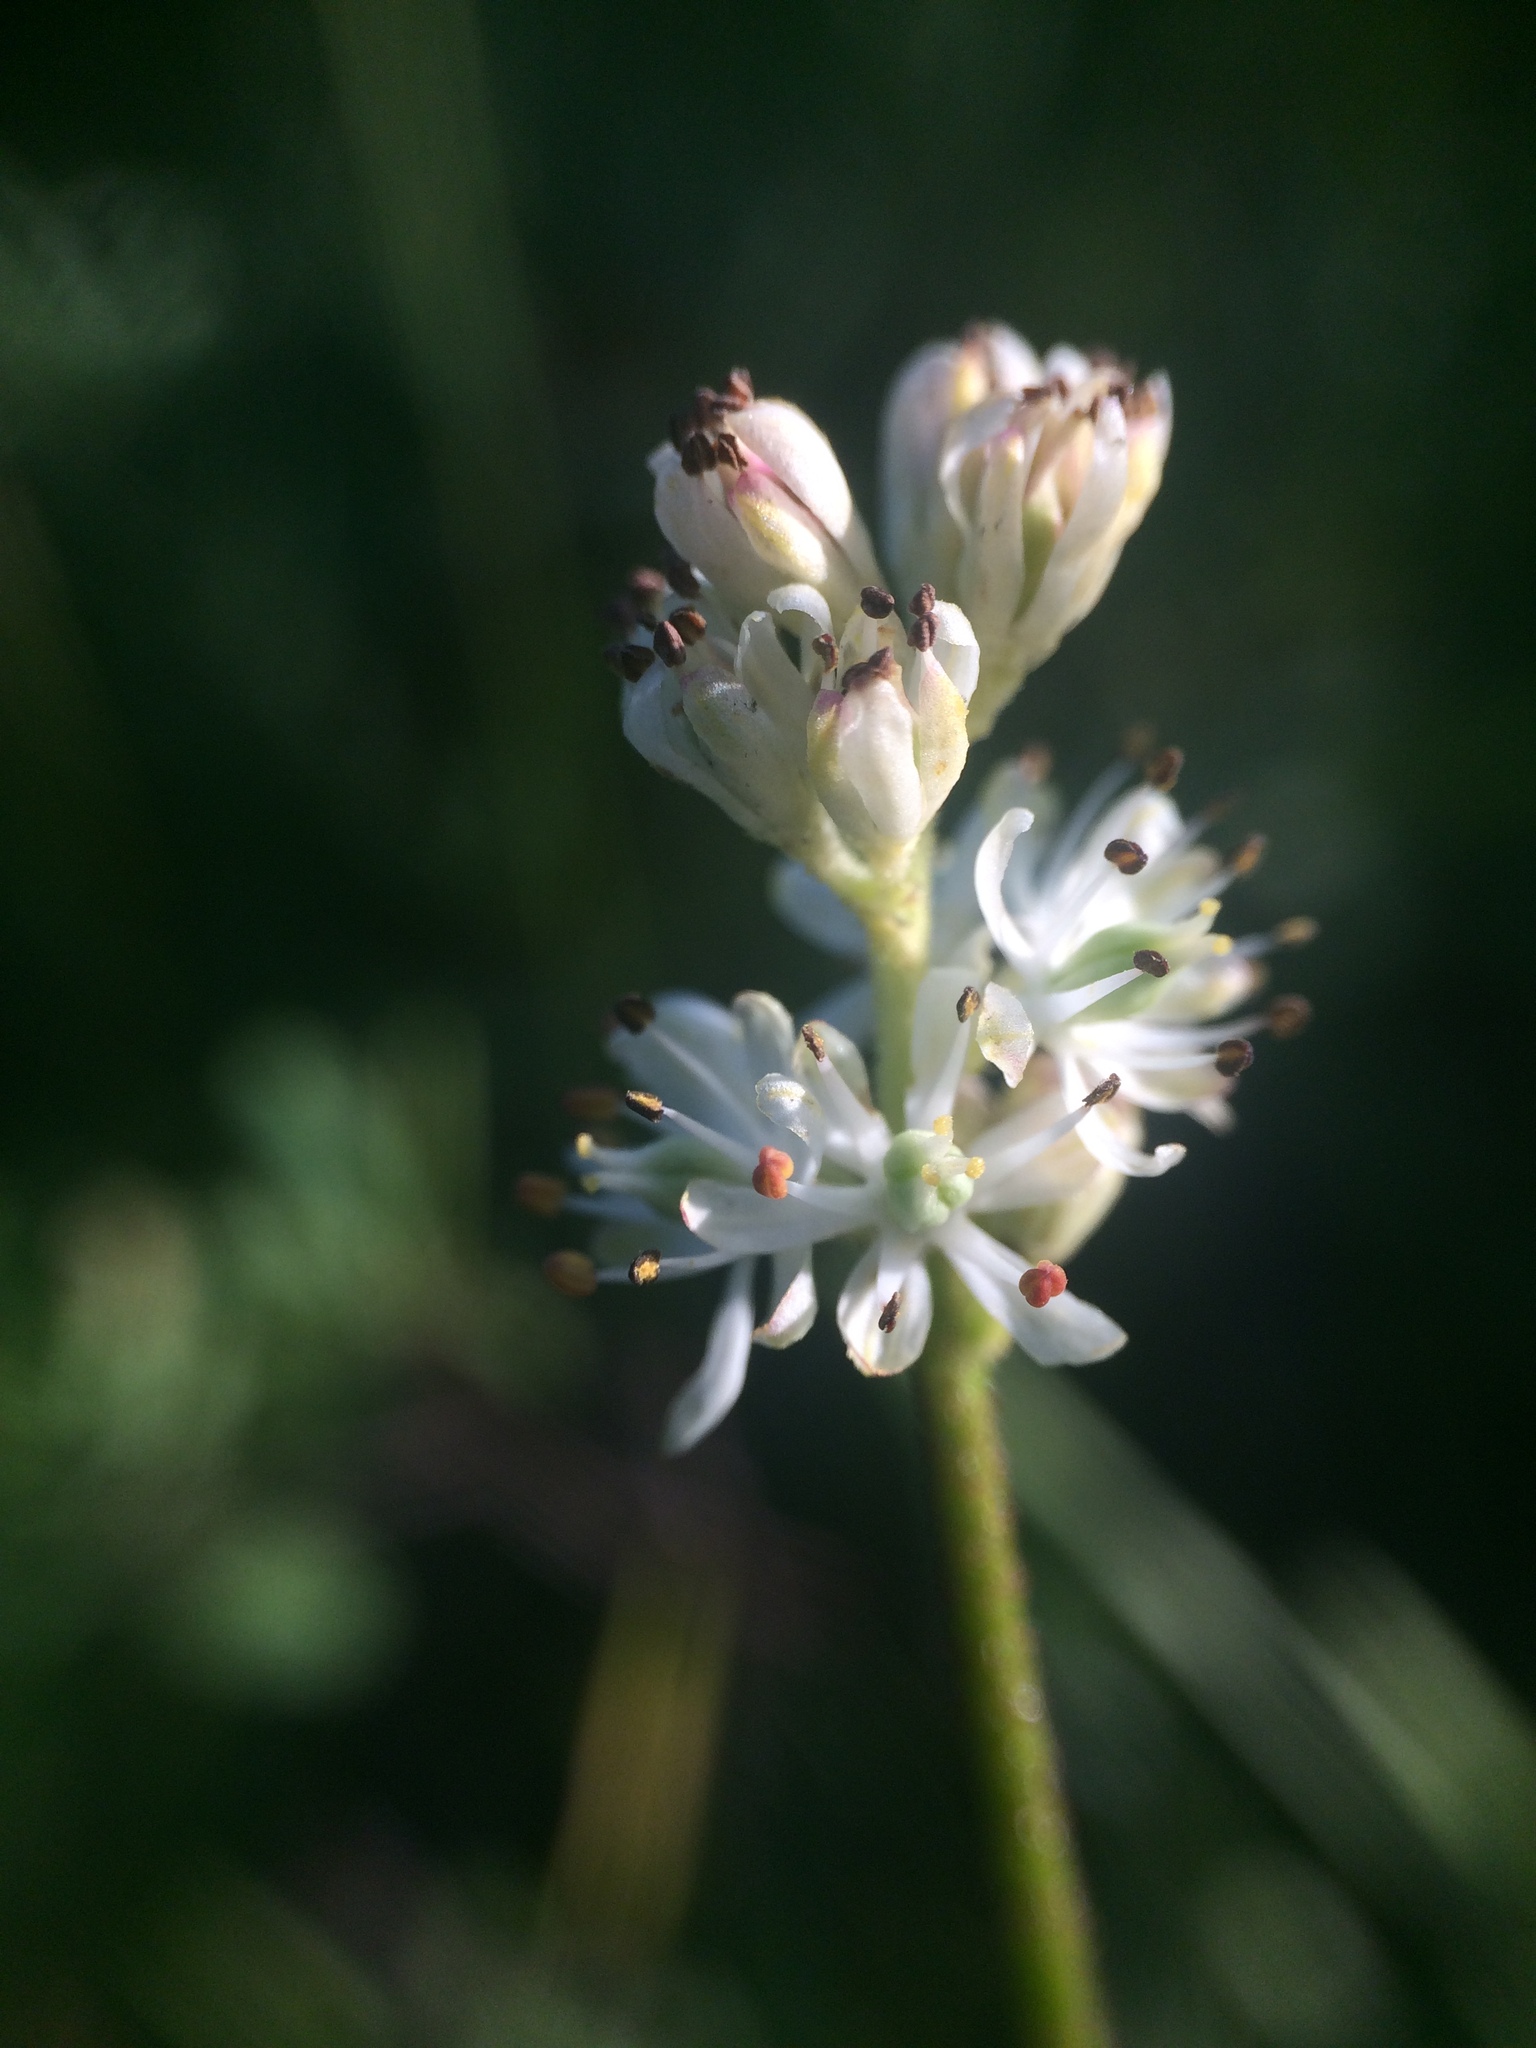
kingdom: Plantae
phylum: Tracheophyta
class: Liliopsida
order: Alismatales
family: Tofieldiaceae
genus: Triantha
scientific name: Triantha glutinosa
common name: Glutinous tofieldia
